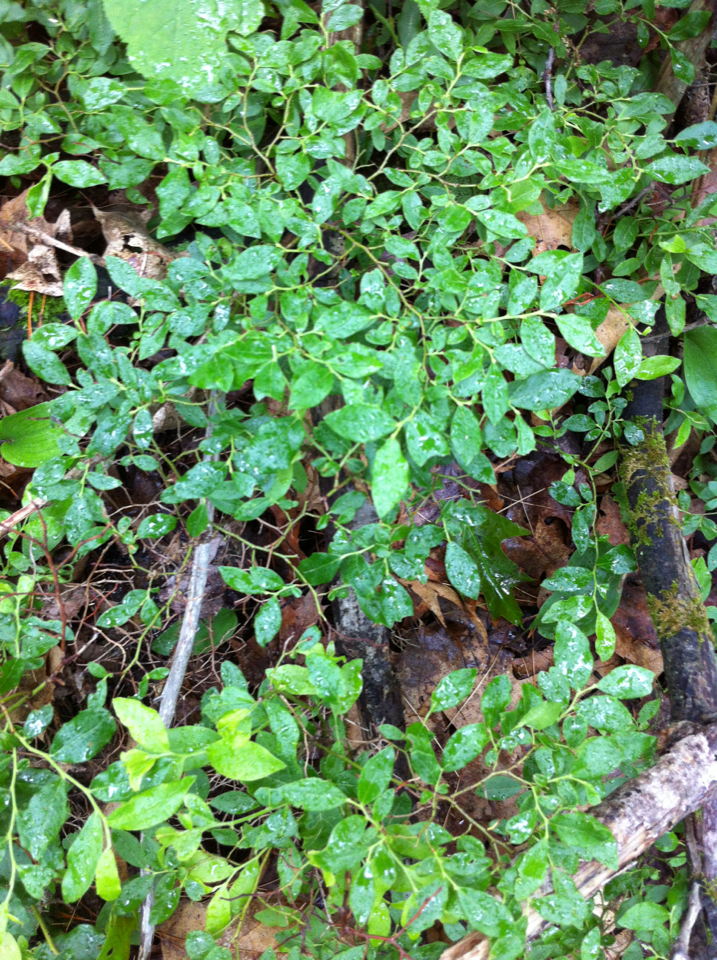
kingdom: Plantae
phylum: Tracheophyta
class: Magnoliopsida
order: Ericales
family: Ericaceae
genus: Vaccinium
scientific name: Vaccinium angustifolium
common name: Early lowbush blueberry
